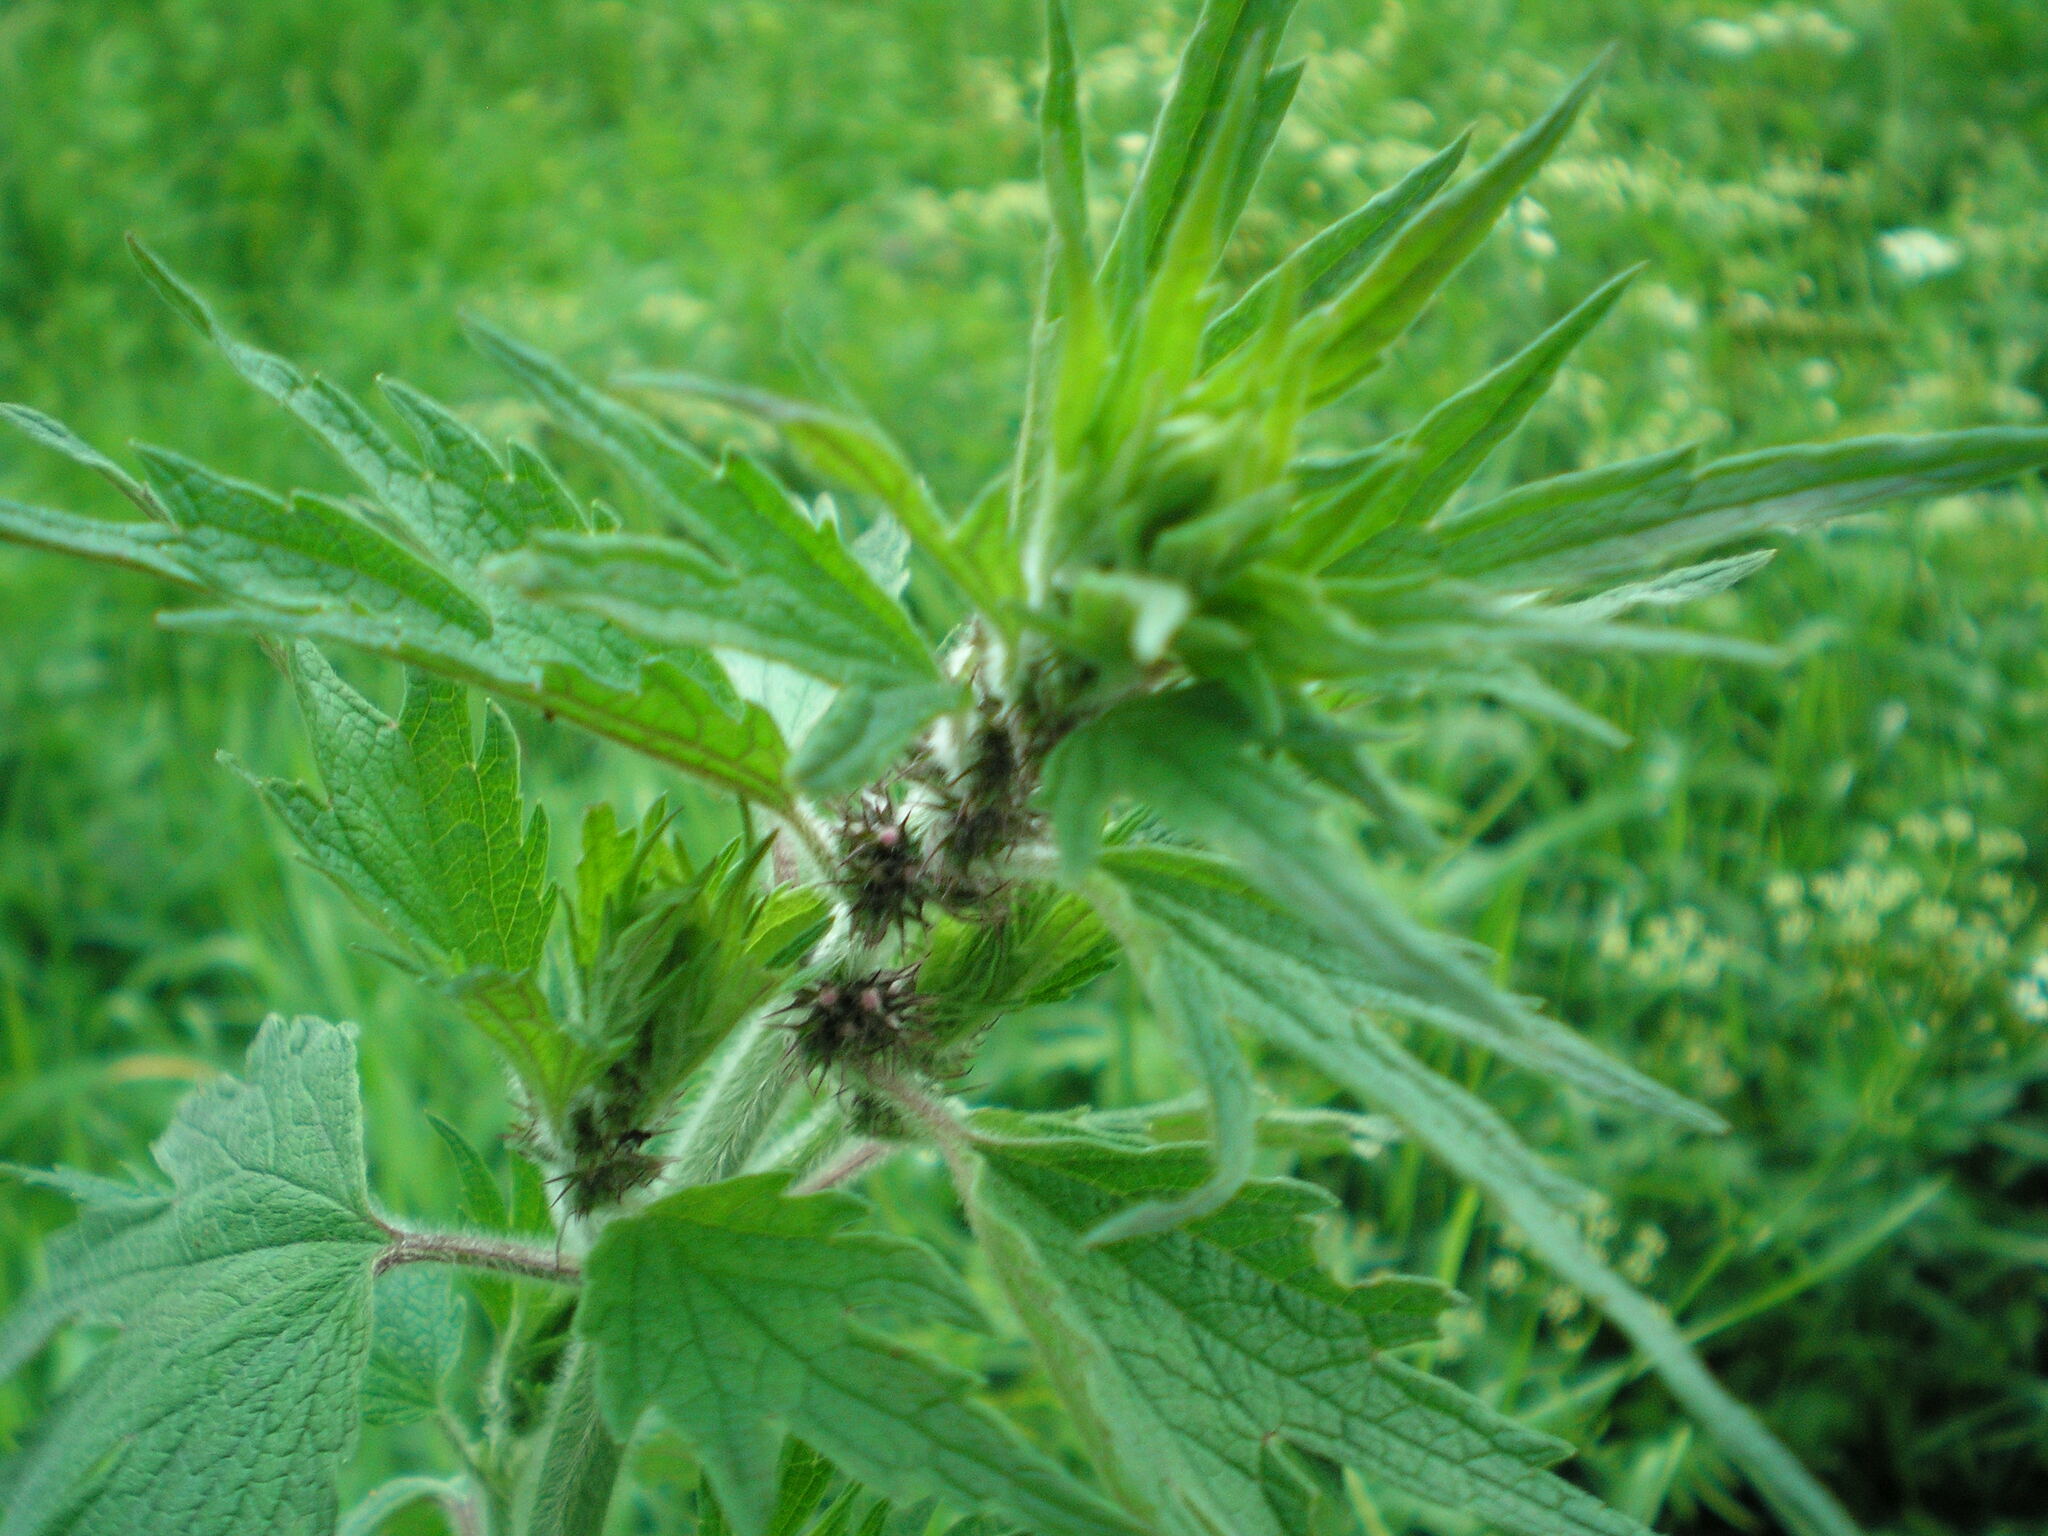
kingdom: Plantae
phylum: Tracheophyta
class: Magnoliopsida
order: Lamiales
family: Lamiaceae
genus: Leonurus
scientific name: Leonurus quinquelobatus
